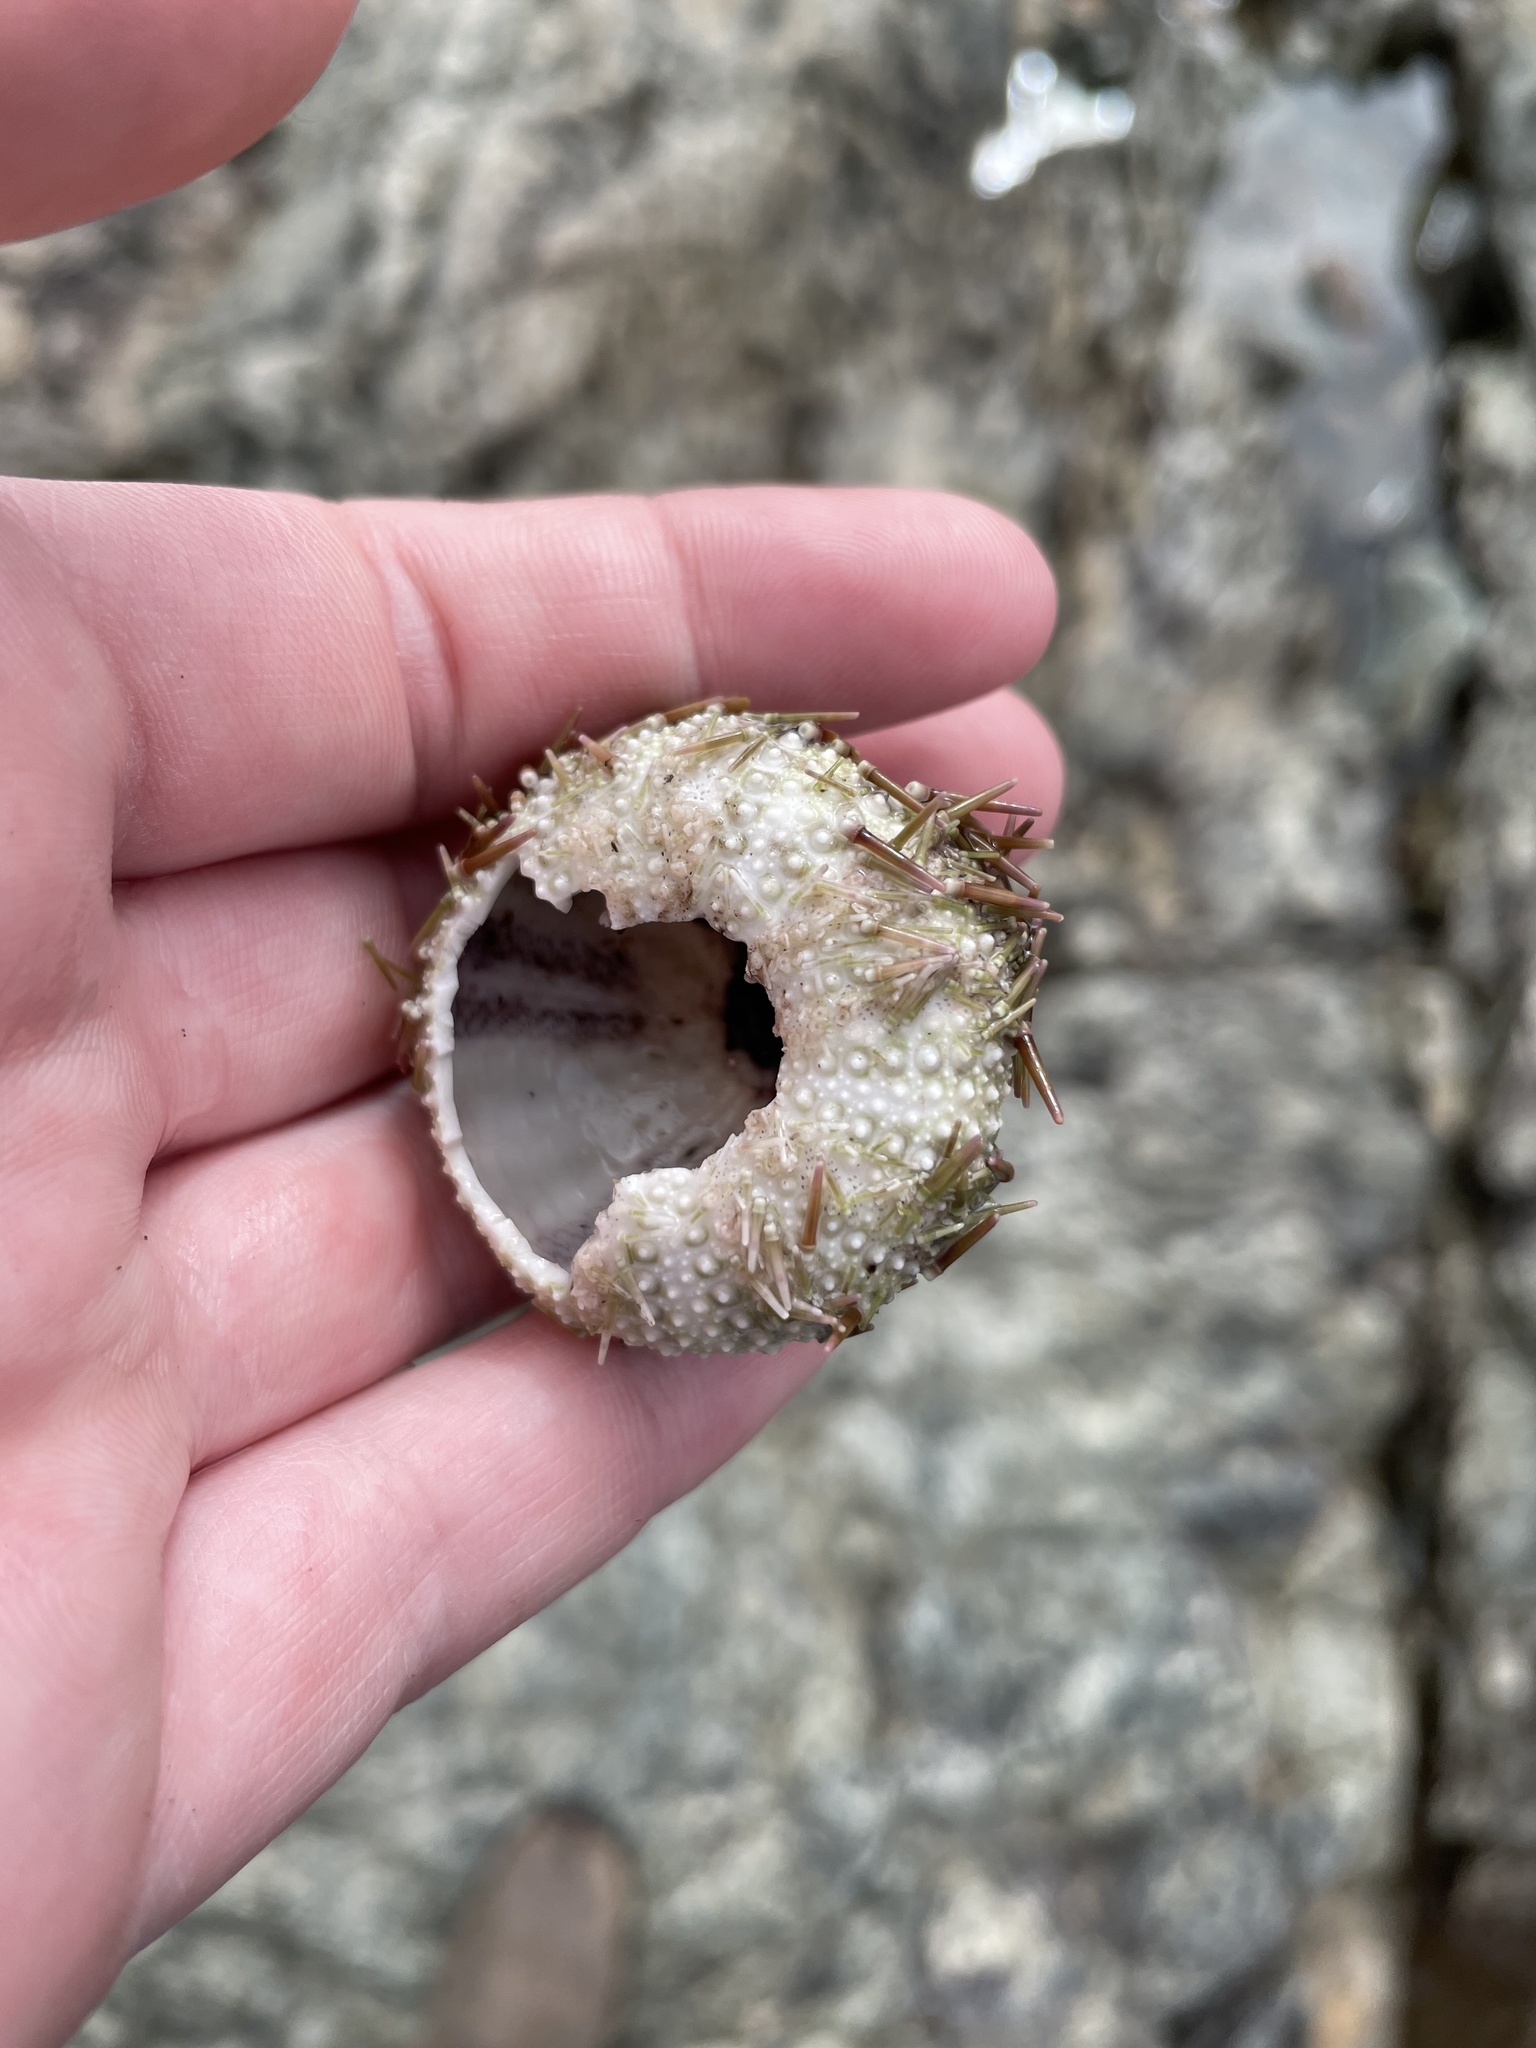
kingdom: Animalia
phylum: Echinodermata
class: Echinoidea
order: Camarodonta
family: Strongylocentrotidae
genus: Strongylocentrotus
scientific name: Strongylocentrotus droebachiensis
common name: Northern sea urchin
